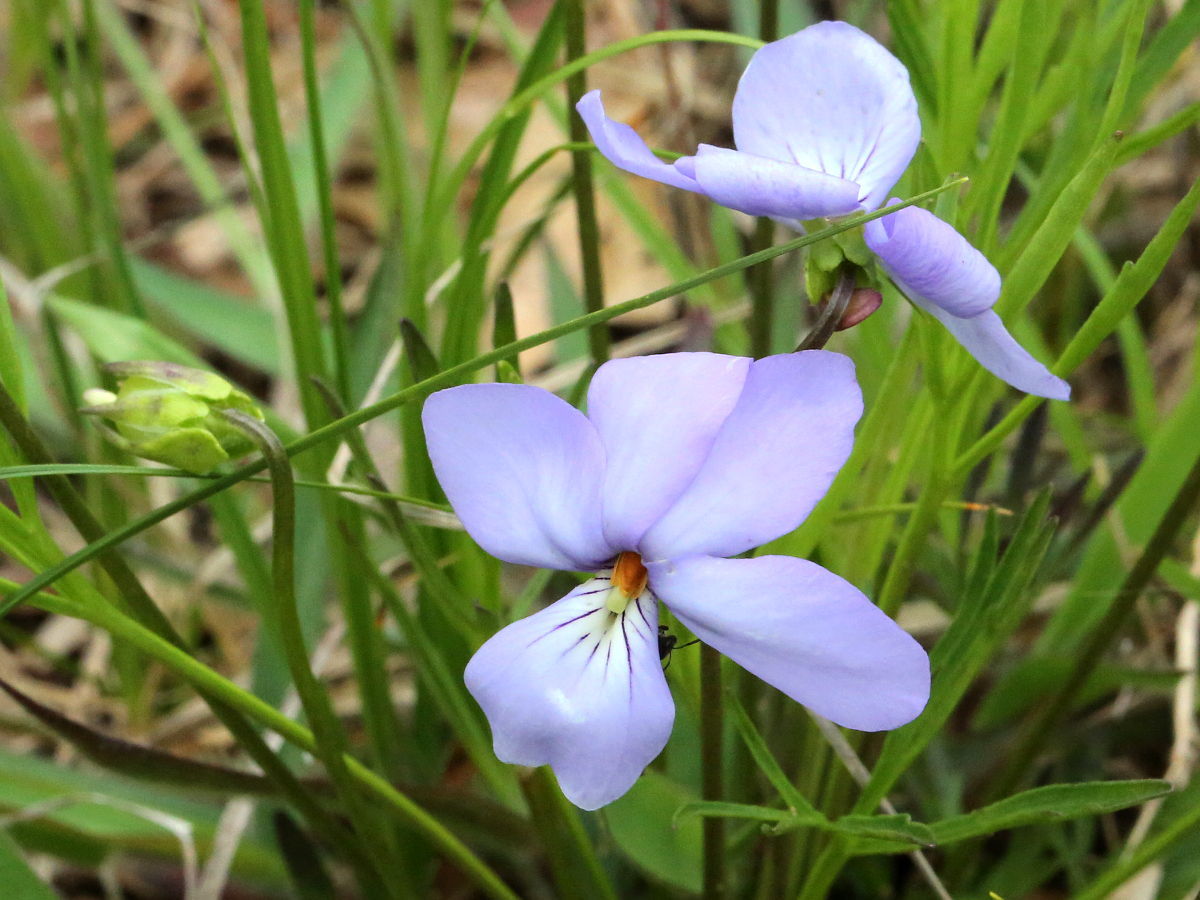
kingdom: Plantae
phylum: Tracheophyta
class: Magnoliopsida
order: Malpighiales
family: Violaceae
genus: Viola
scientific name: Viola pedata
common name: Pansy violet
